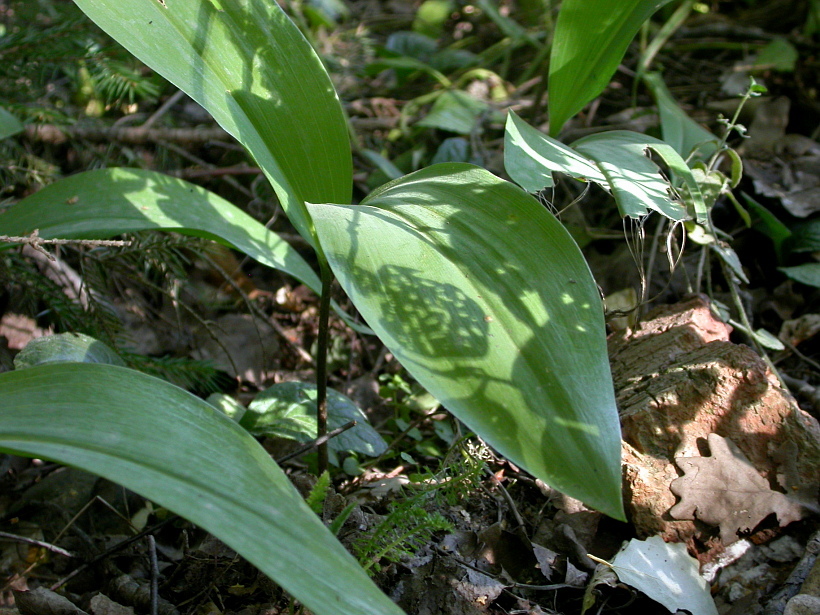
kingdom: Plantae
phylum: Tracheophyta
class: Liliopsida
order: Asparagales
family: Asparagaceae
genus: Convallaria
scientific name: Convallaria majalis
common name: Lily-of-the-valley
